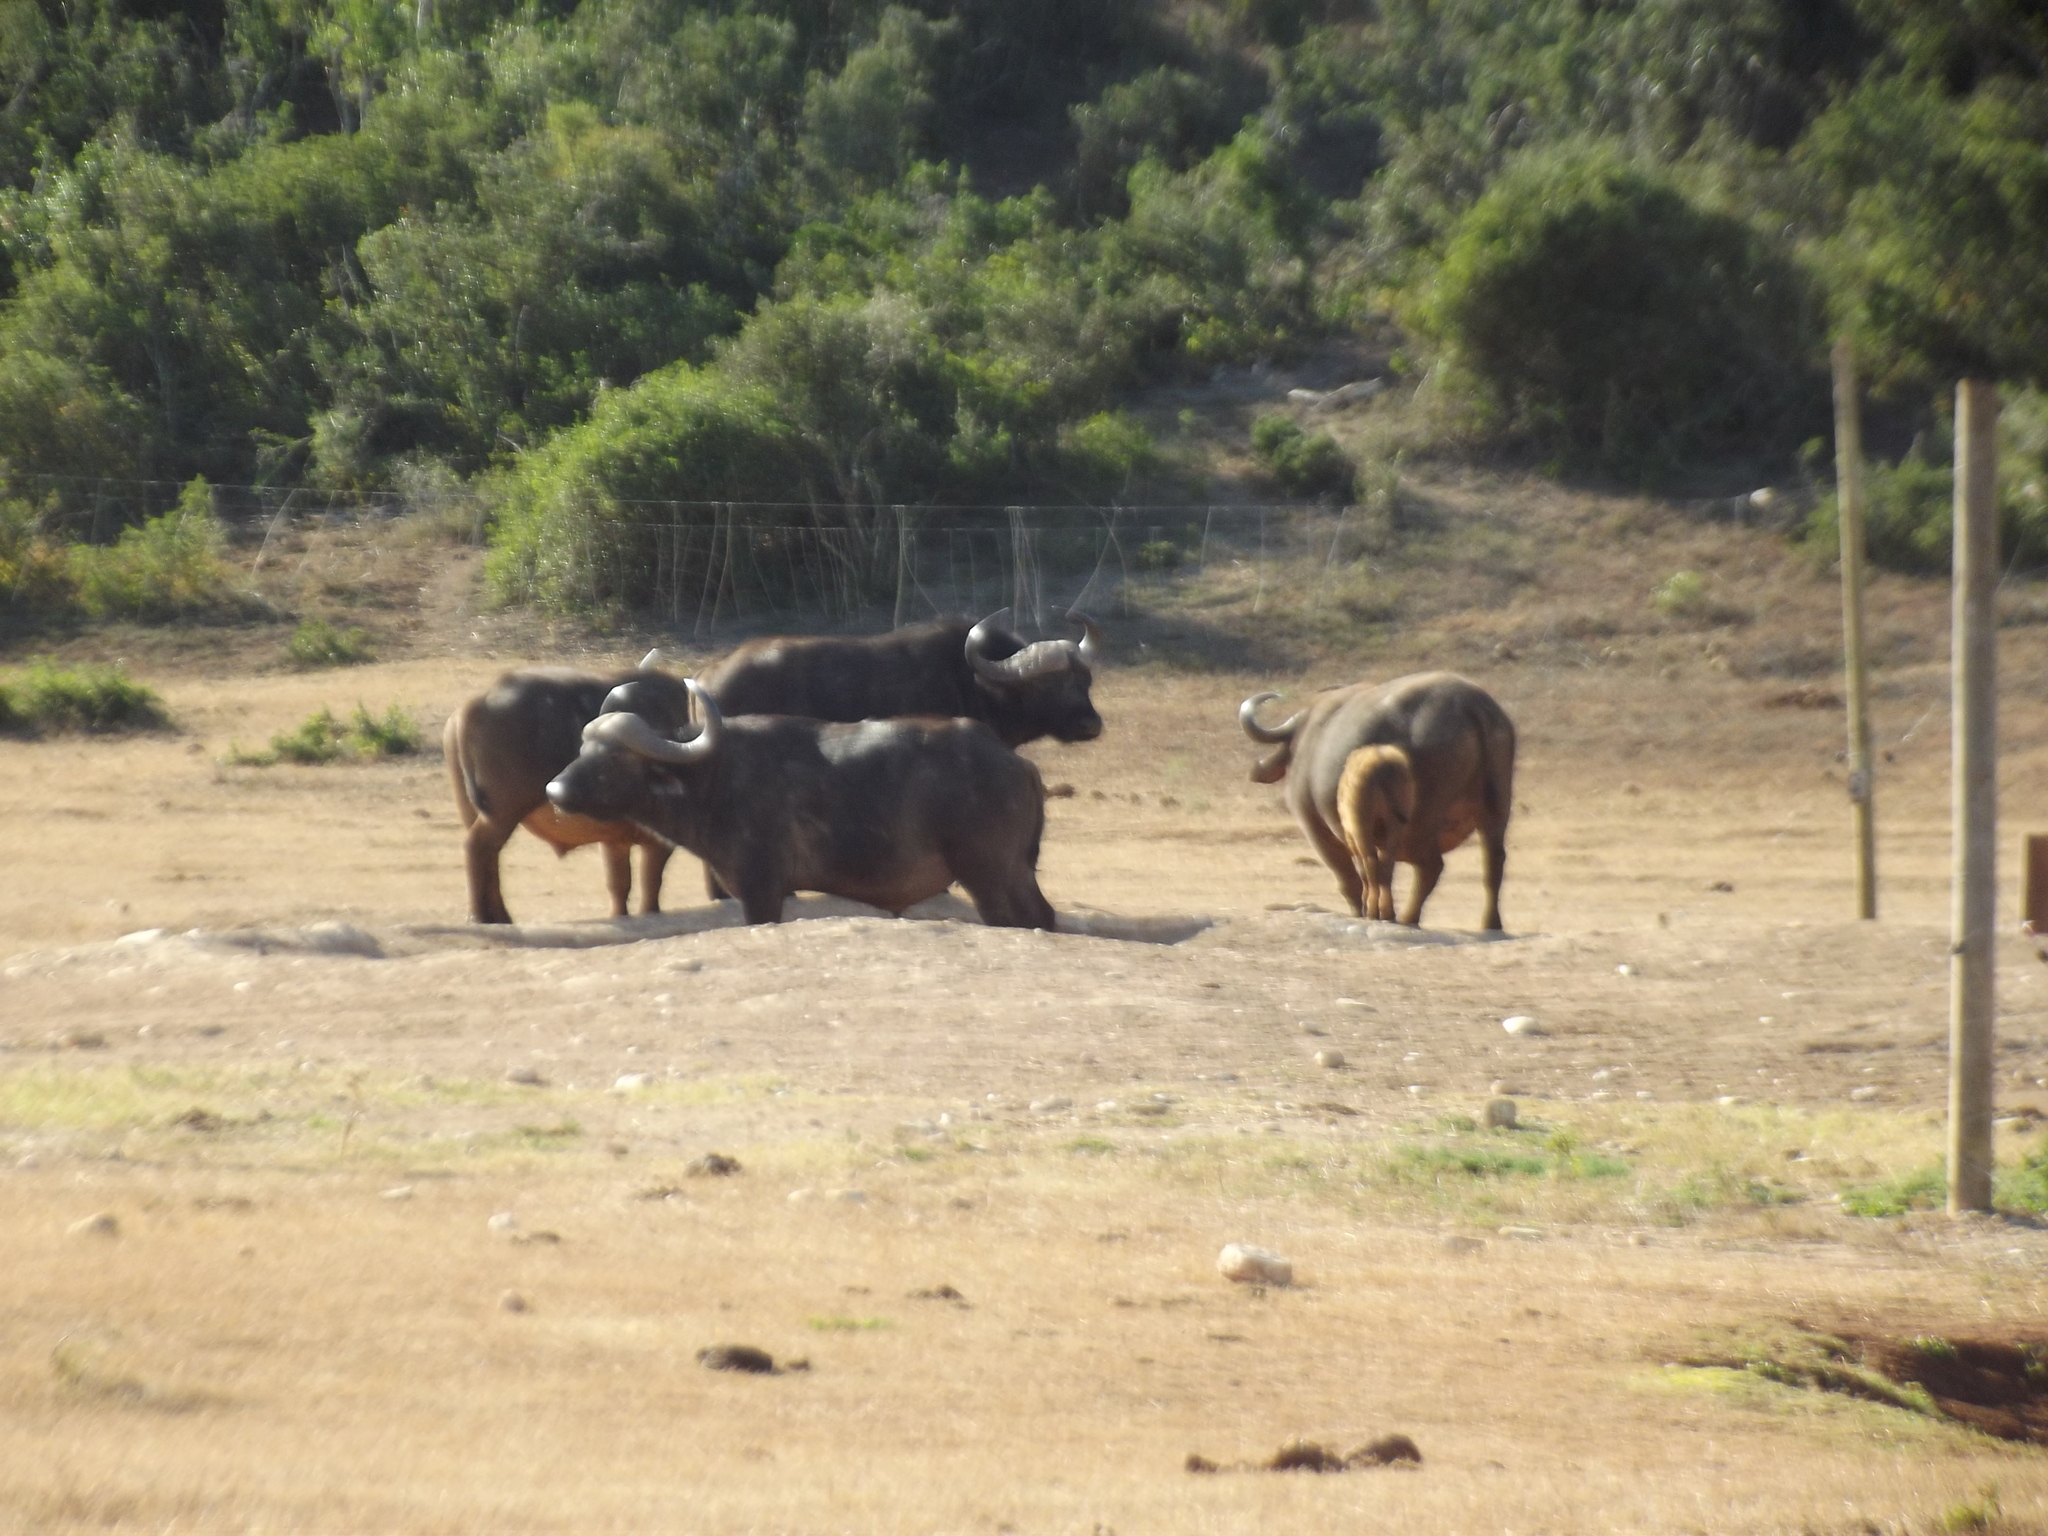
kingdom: Animalia
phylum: Chordata
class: Mammalia
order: Artiodactyla
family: Bovidae
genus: Syncerus
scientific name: Syncerus caffer
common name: African buffalo
